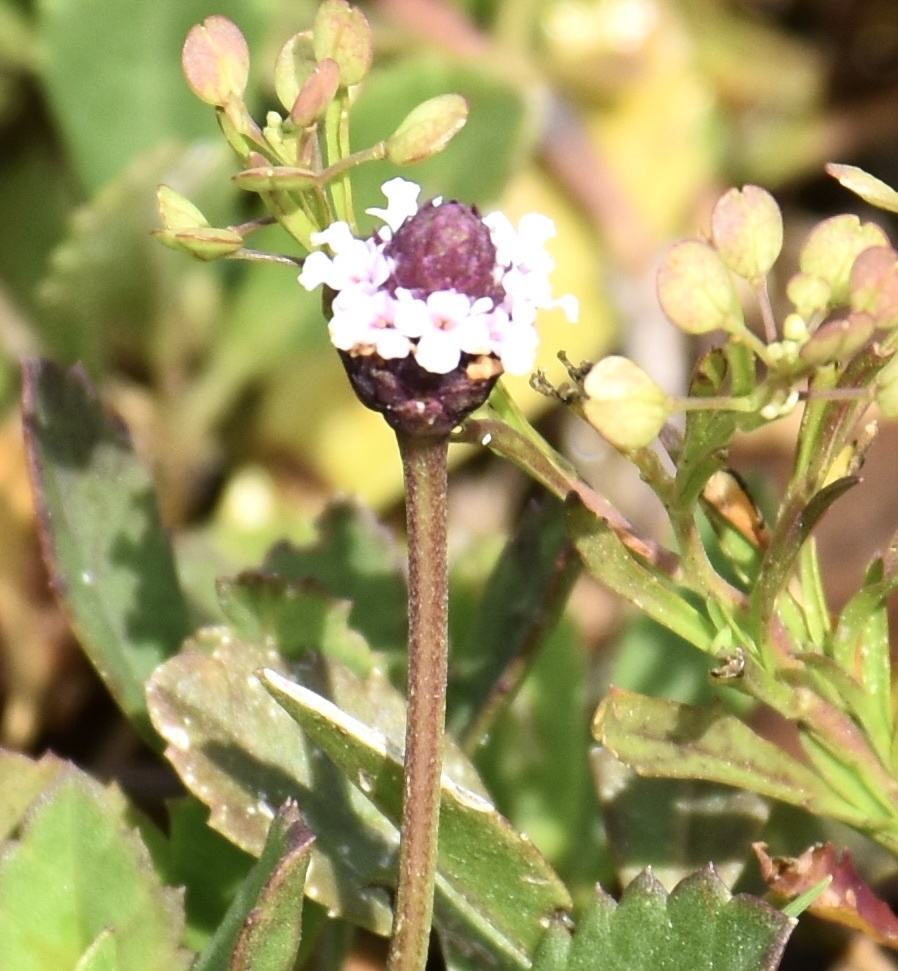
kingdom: Plantae
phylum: Tracheophyta
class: Magnoliopsida
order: Lamiales
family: Verbenaceae
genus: Phyla
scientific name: Phyla nodiflora
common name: Frogfruit
